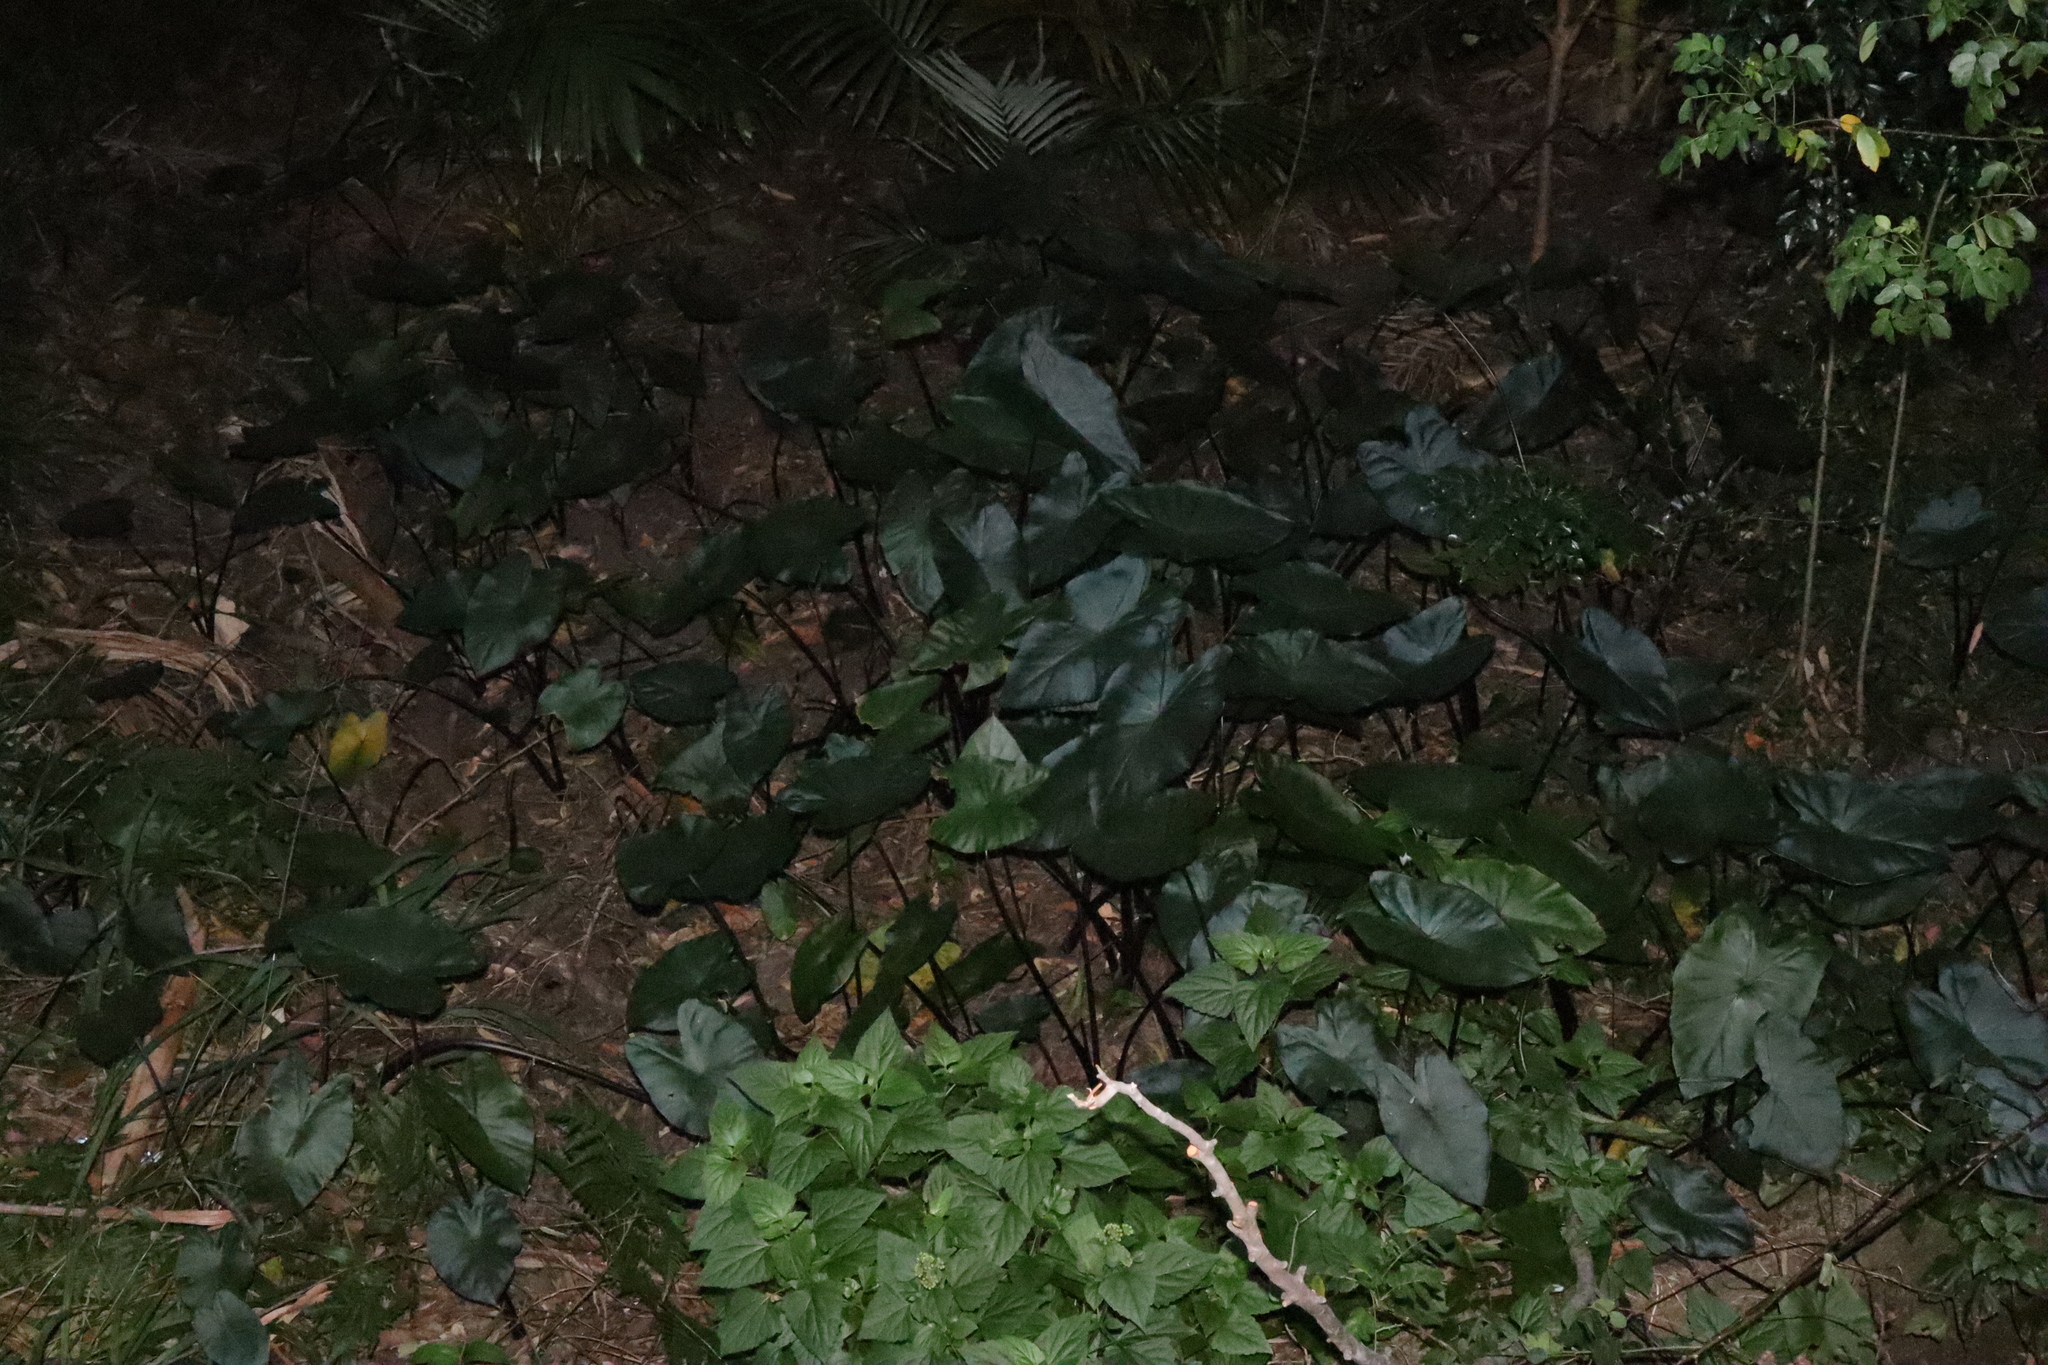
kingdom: Plantae
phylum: Tracheophyta
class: Liliopsida
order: Alismatales
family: Araceae
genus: Colocasia
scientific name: Colocasia fontanesii
